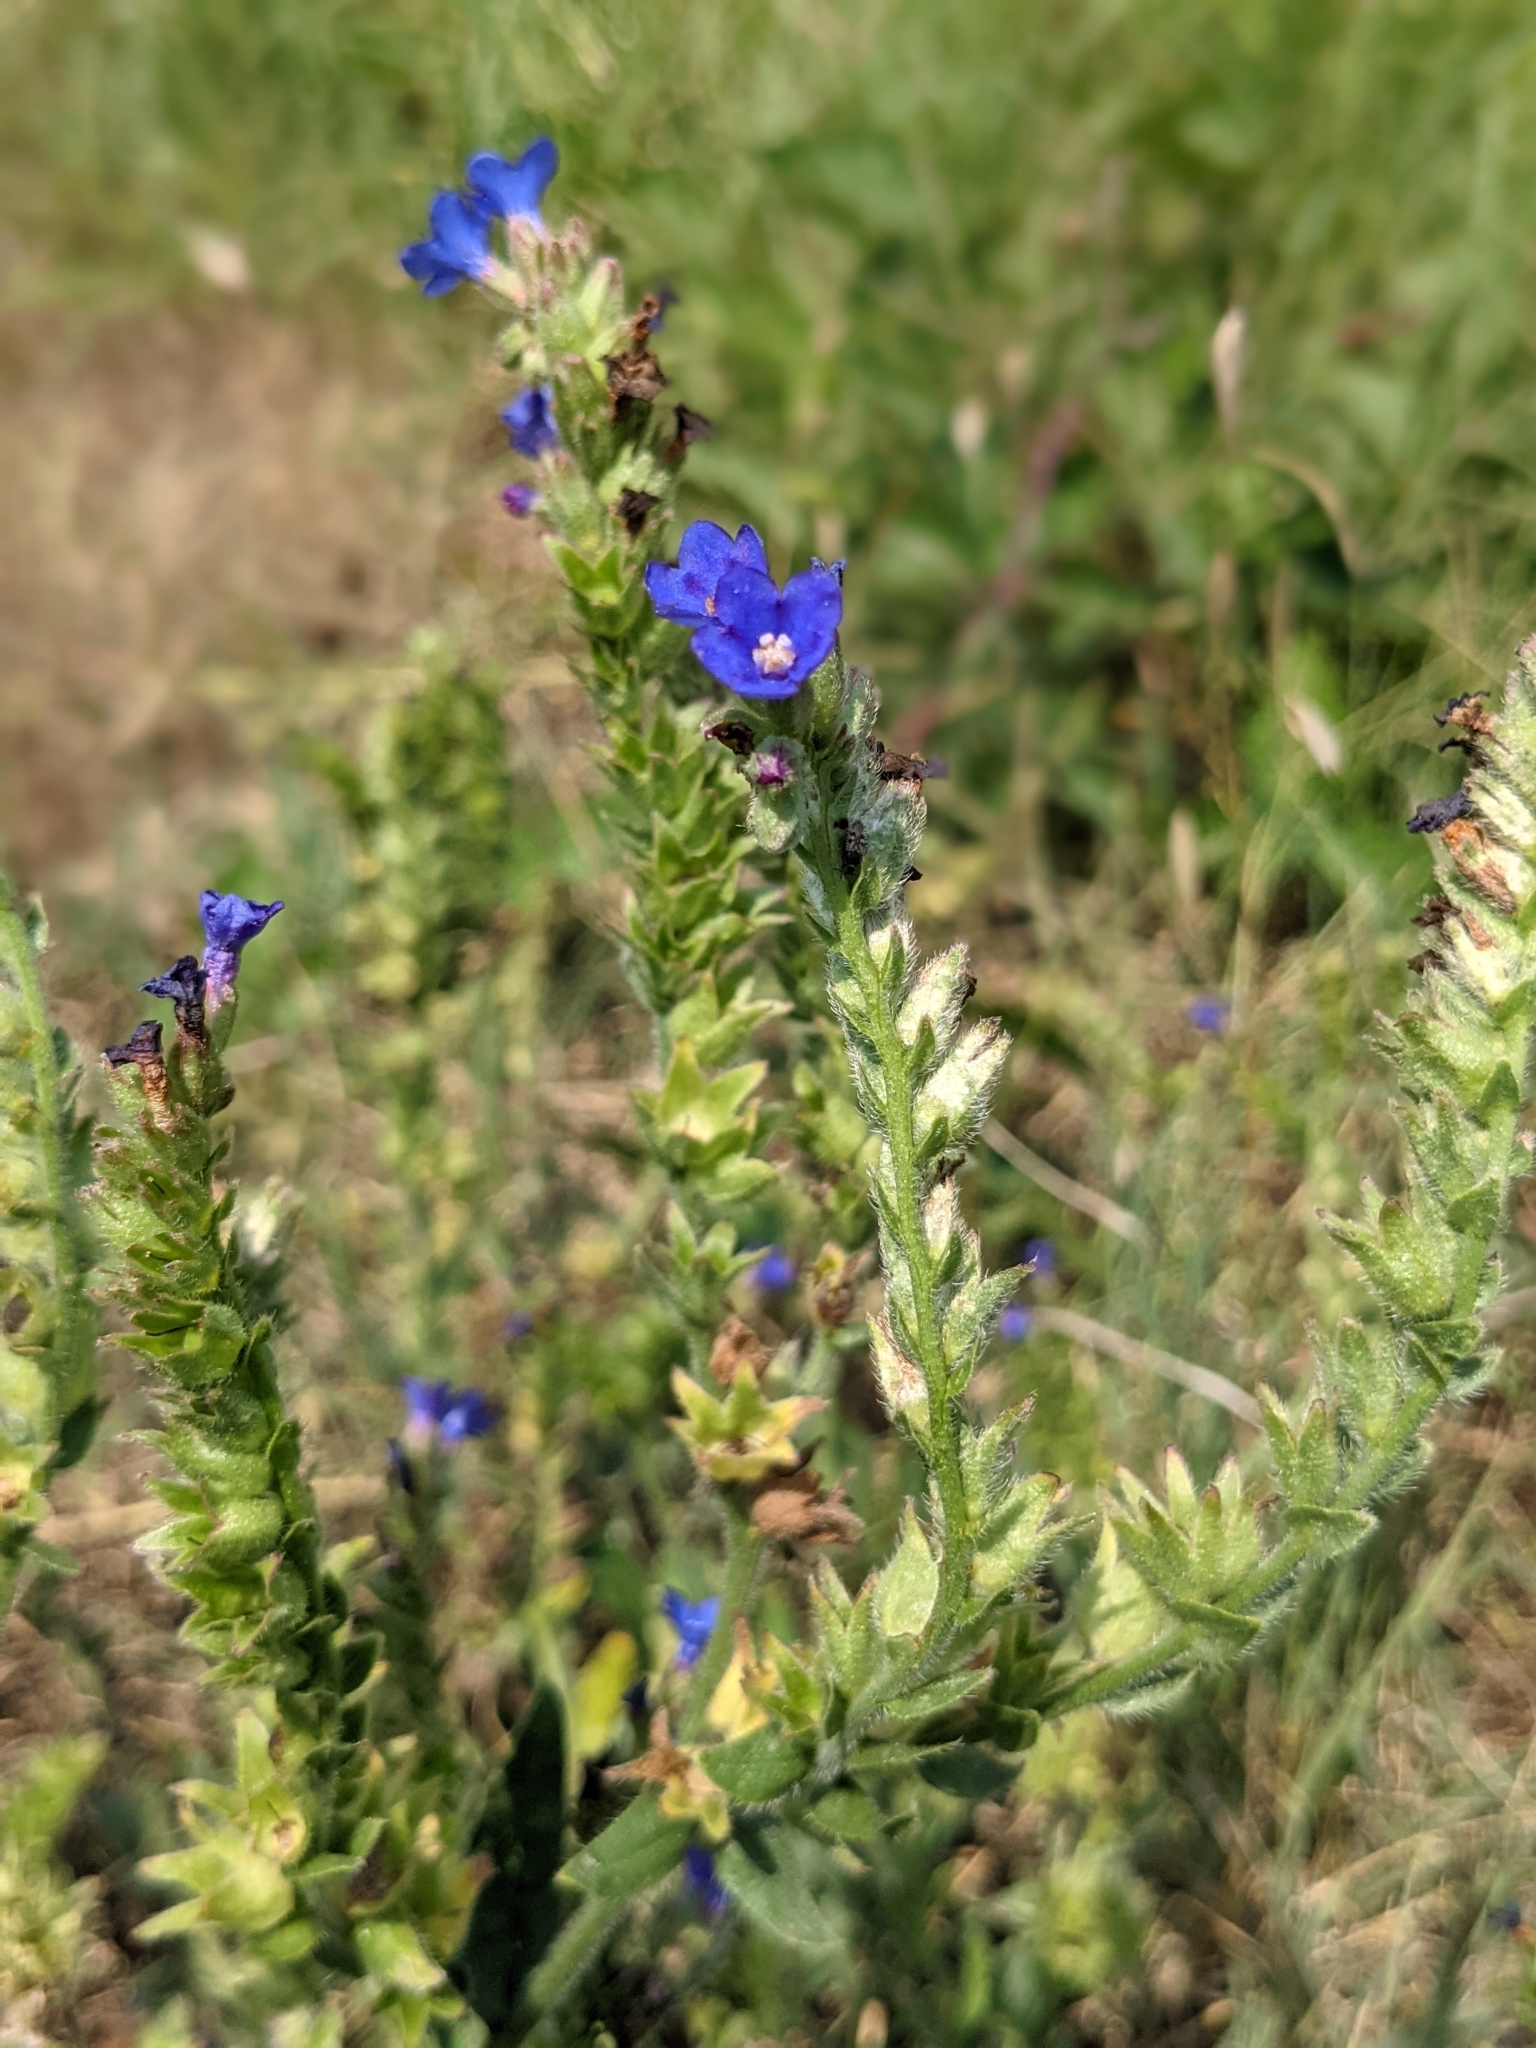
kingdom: Plantae
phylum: Tracheophyta
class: Magnoliopsida
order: Boraginales
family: Boraginaceae
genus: Anchusa
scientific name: Anchusa officinalis
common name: Alkanet
